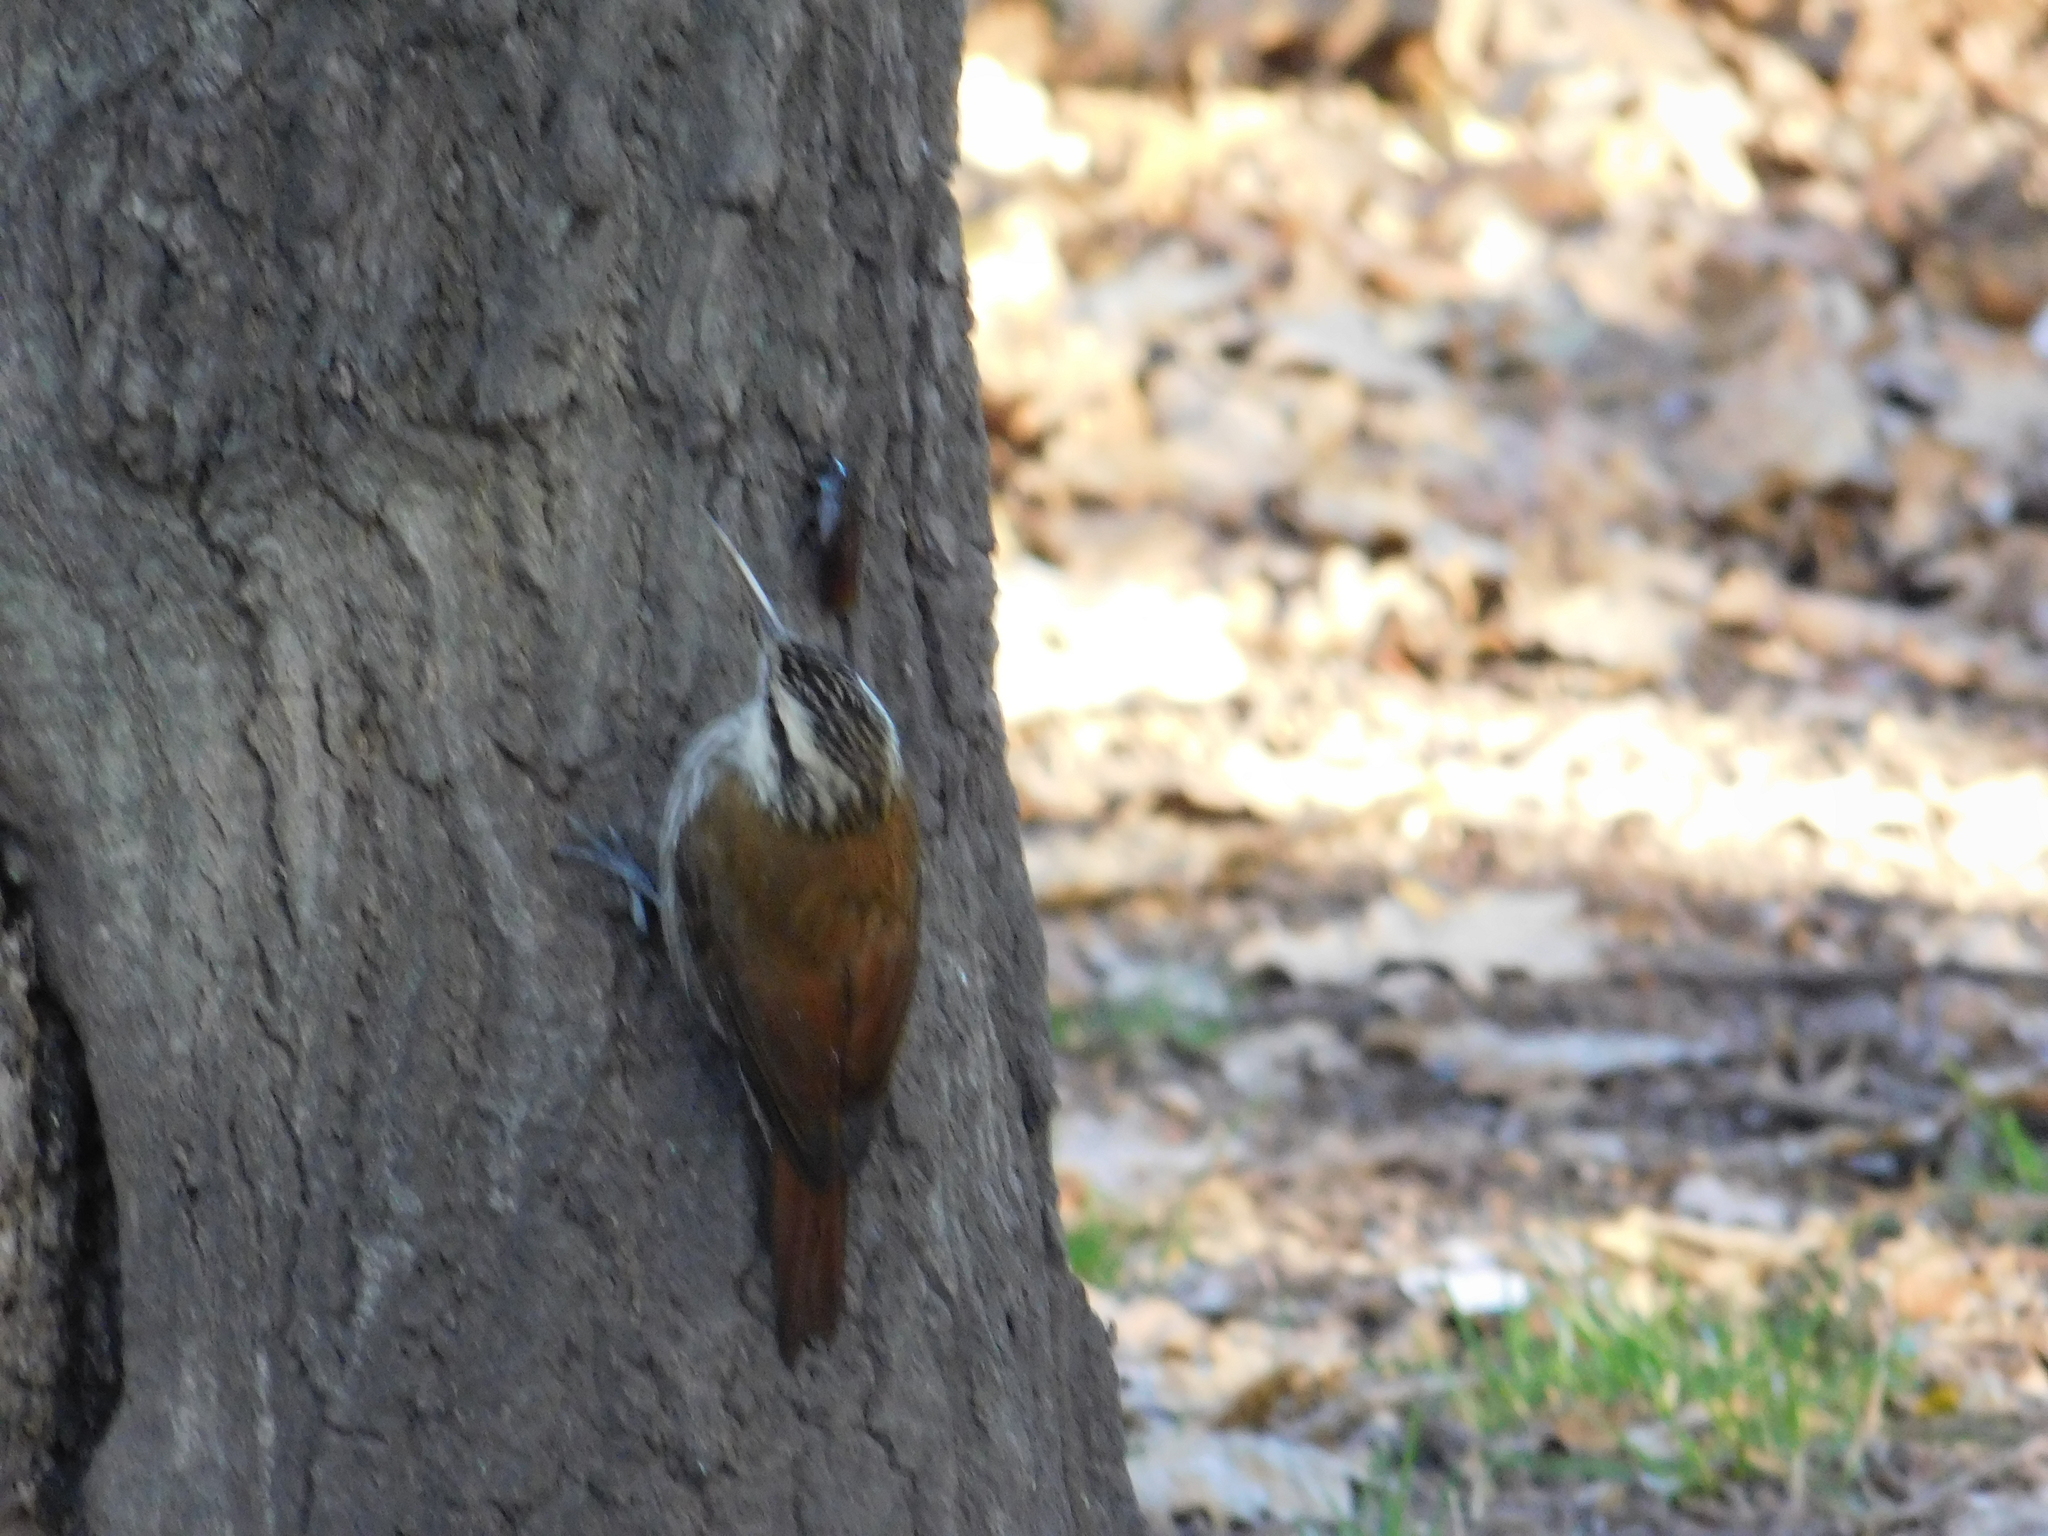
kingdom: Animalia
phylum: Chordata
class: Aves
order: Passeriformes
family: Furnariidae
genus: Lepidocolaptes
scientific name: Lepidocolaptes angustirostris
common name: Narrow-billed woodcreeper
